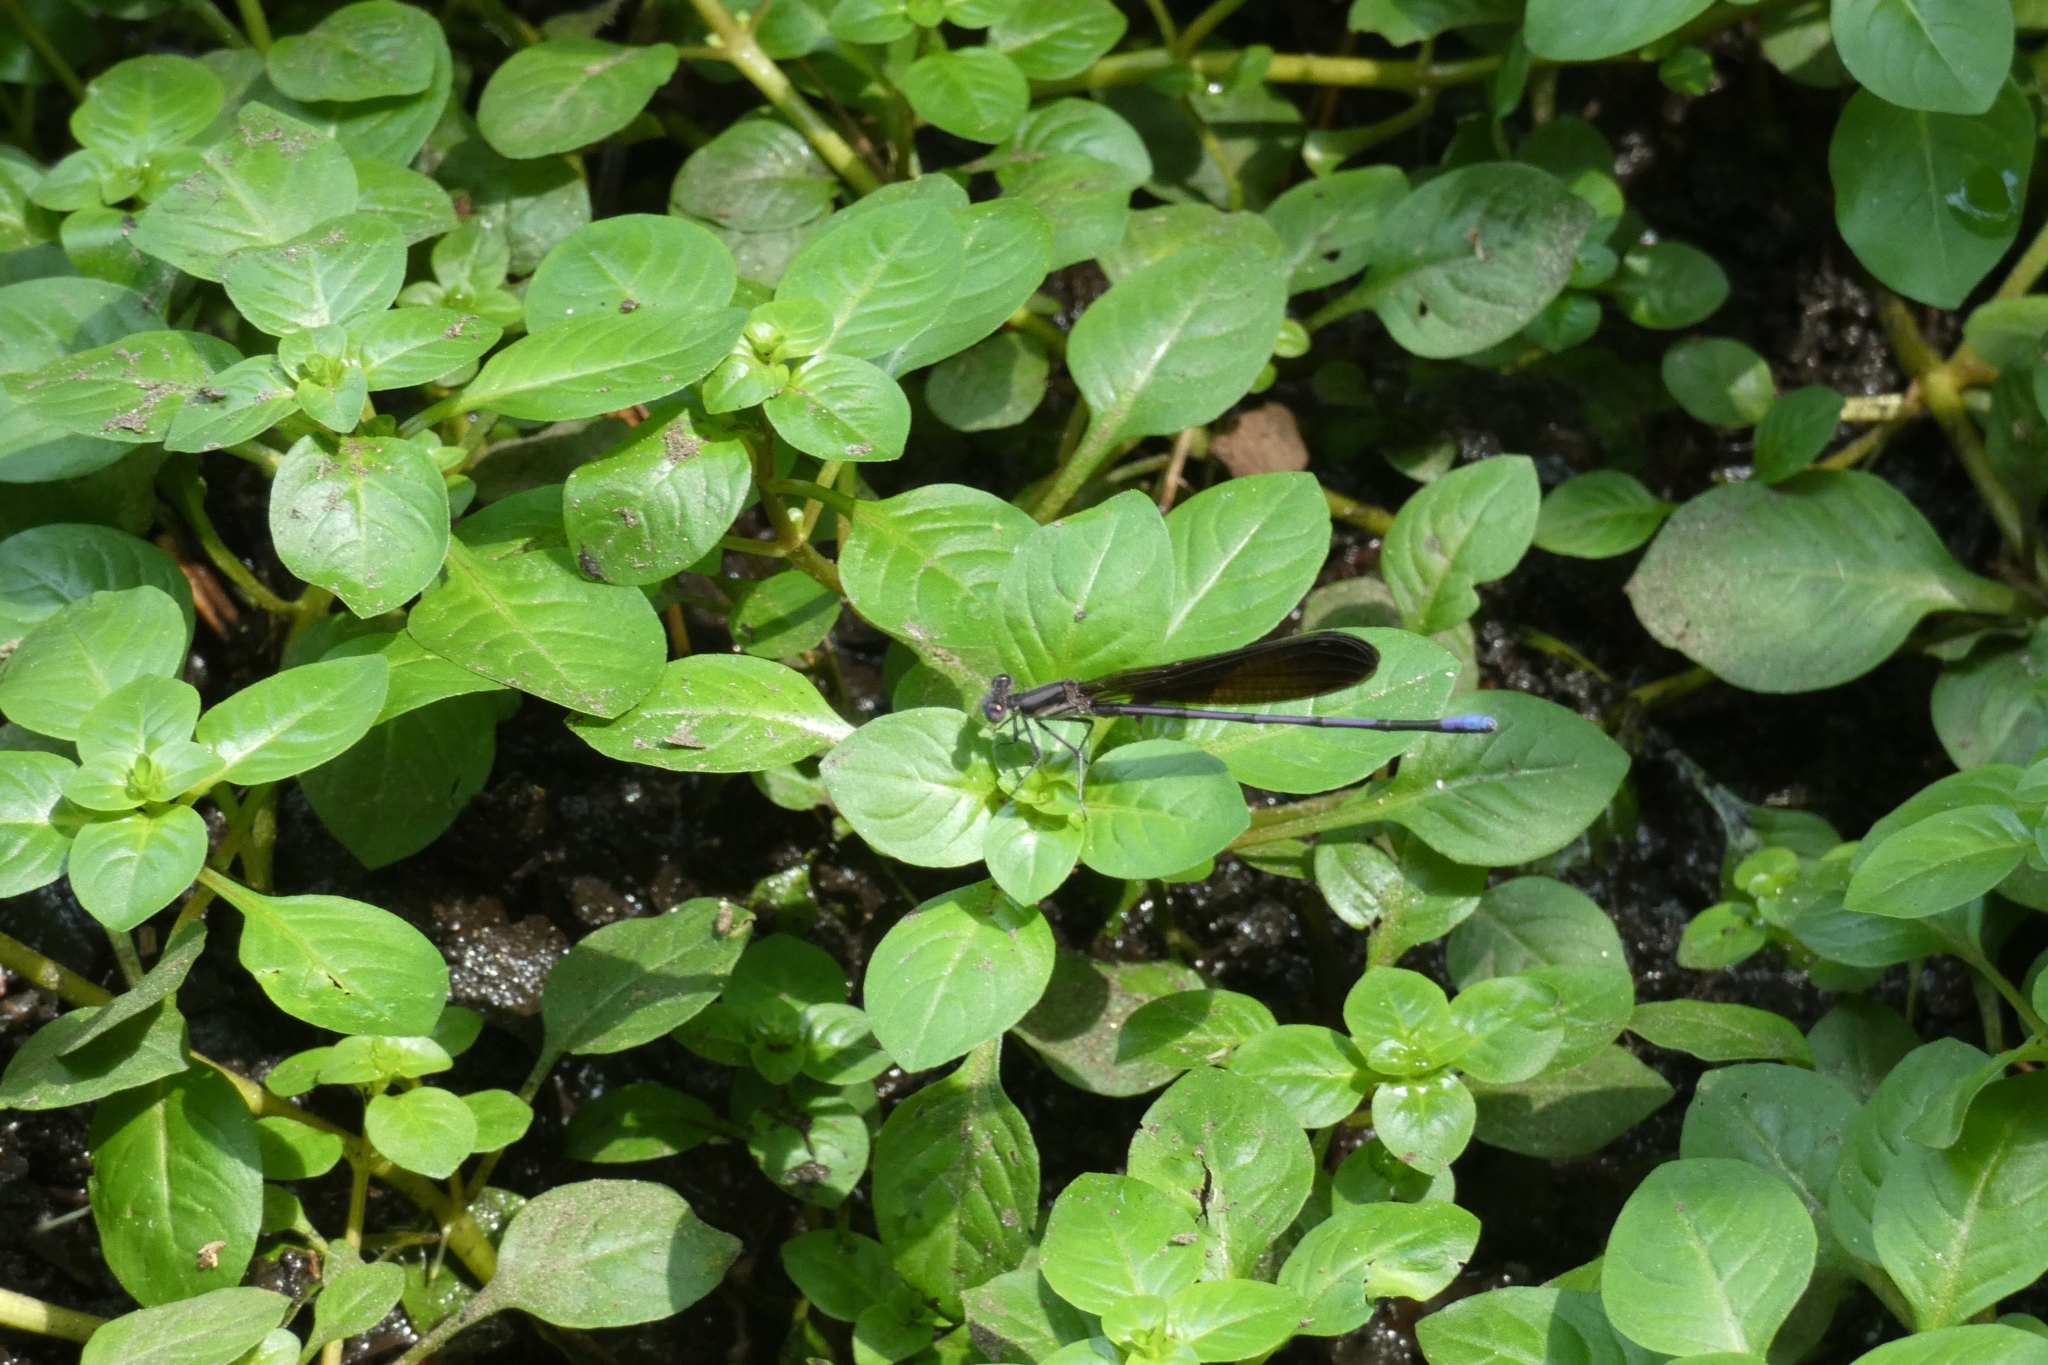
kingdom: Animalia
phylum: Arthropoda
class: Insecta
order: Odonata
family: Coenagrionidae
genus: Argia
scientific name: Argia fumipennis
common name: Variable dancer
